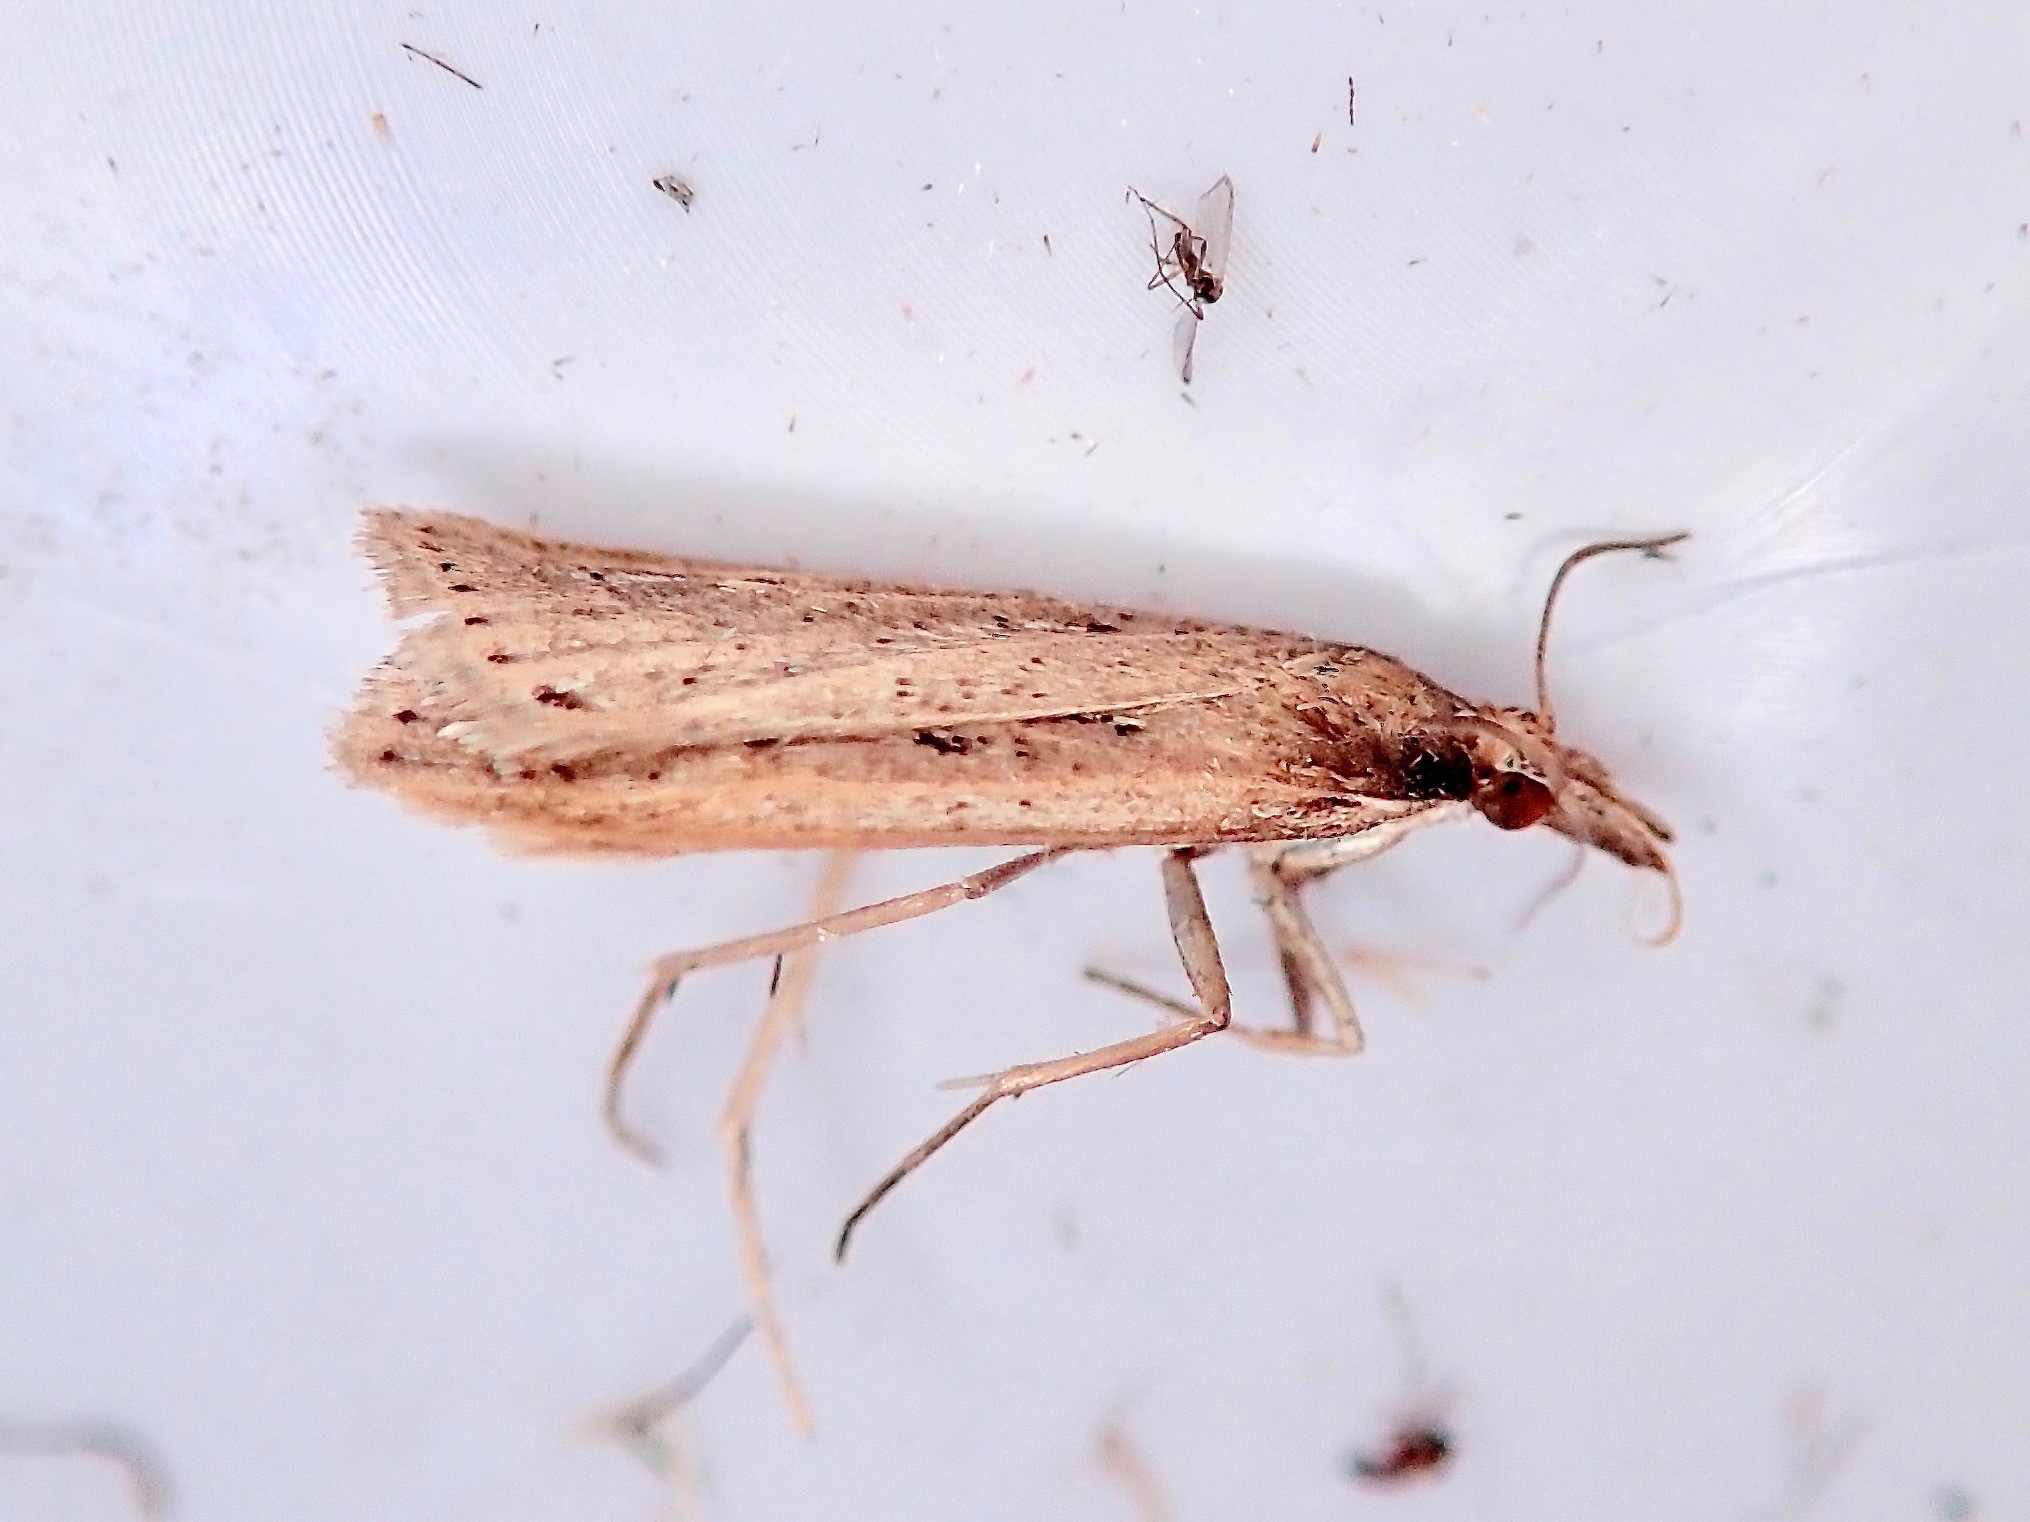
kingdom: Animalia
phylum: Arthropoda
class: Insecta
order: Lepidoptera
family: Crambidae
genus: Eudonia
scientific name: Eudonia sabulosella
